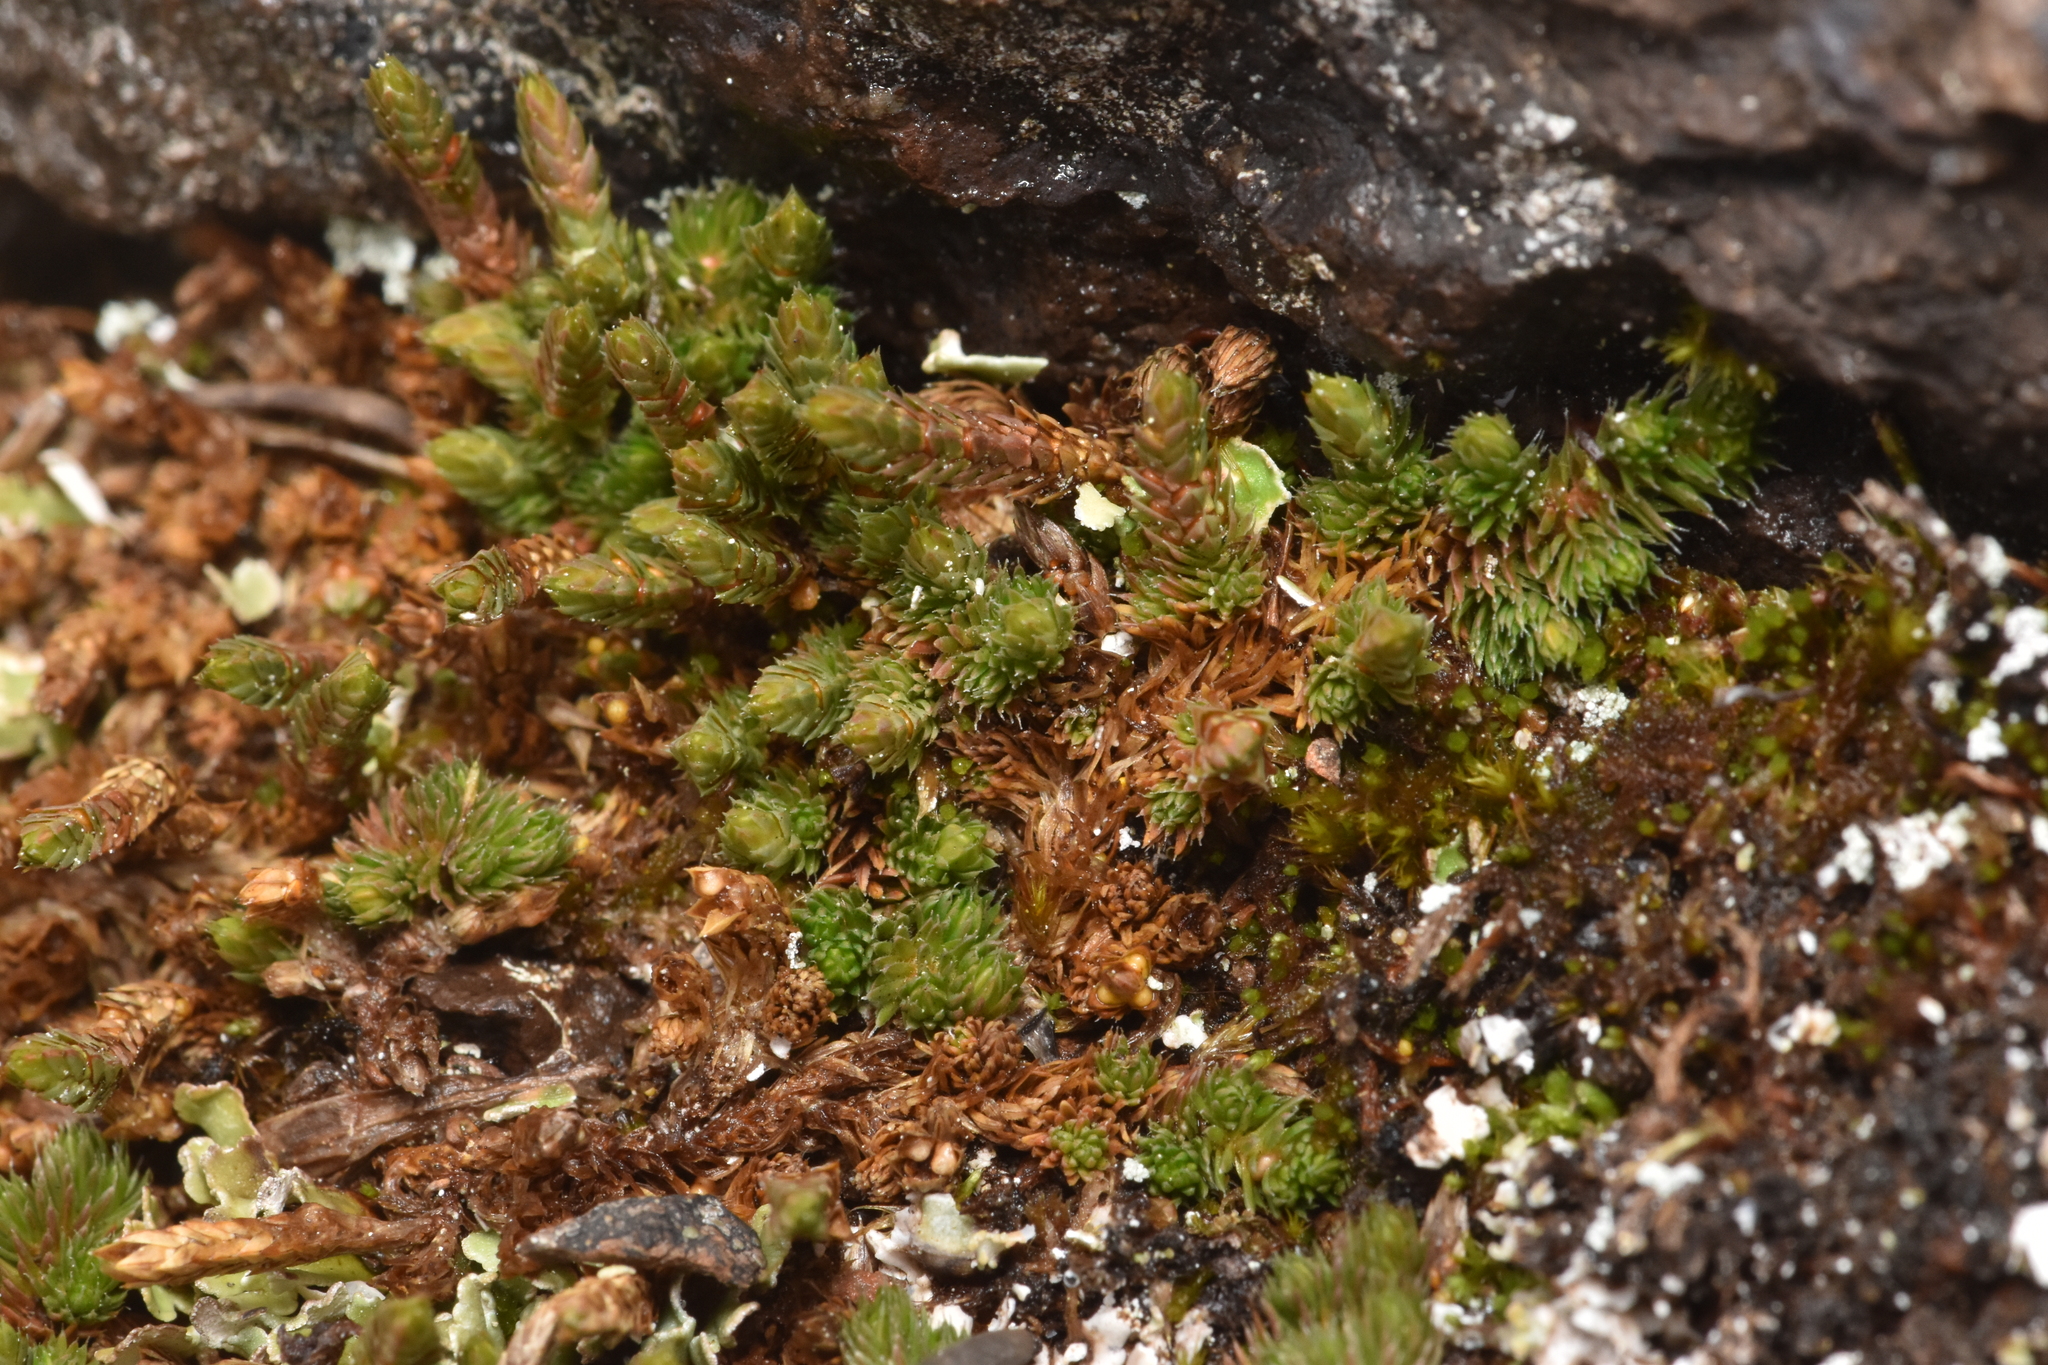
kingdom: Plantae
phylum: Tracheophyta
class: Lycopodiopsida
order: Selaginellales
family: Selaginellaceae
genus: Selaginella
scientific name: Selaginella densa
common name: Mountain spike-moss
